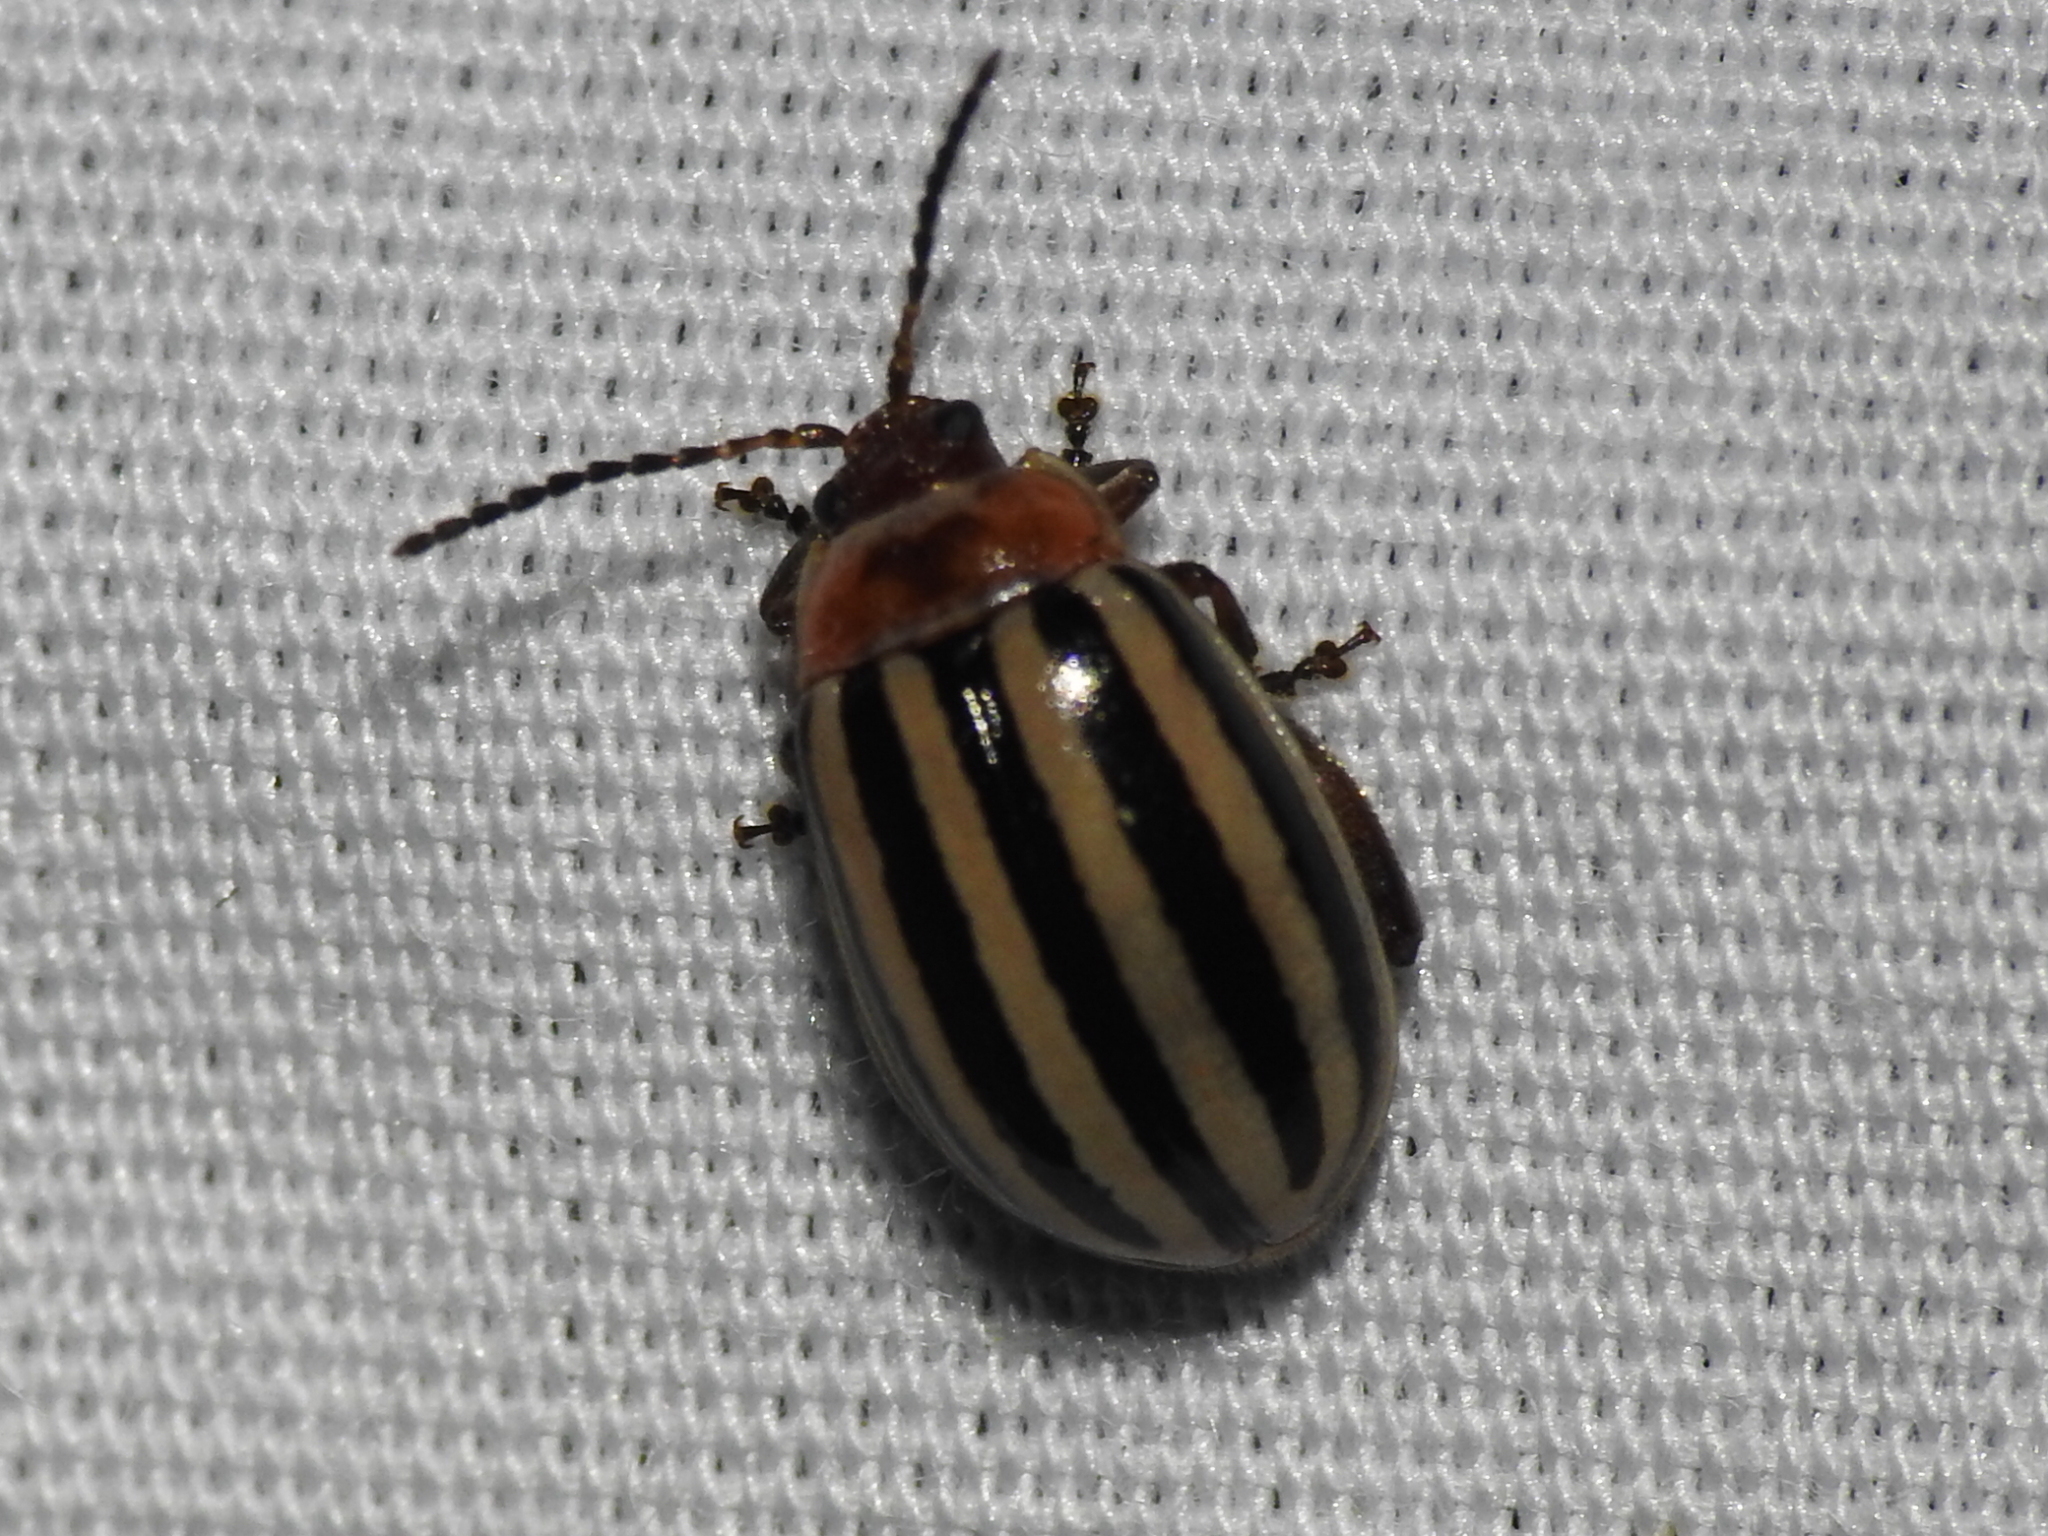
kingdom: Animalia
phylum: Arthropoda
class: Insecta
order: Coleoptera
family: Chrysomelidae
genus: Kuschelina
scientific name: Kuschelina petaurista
